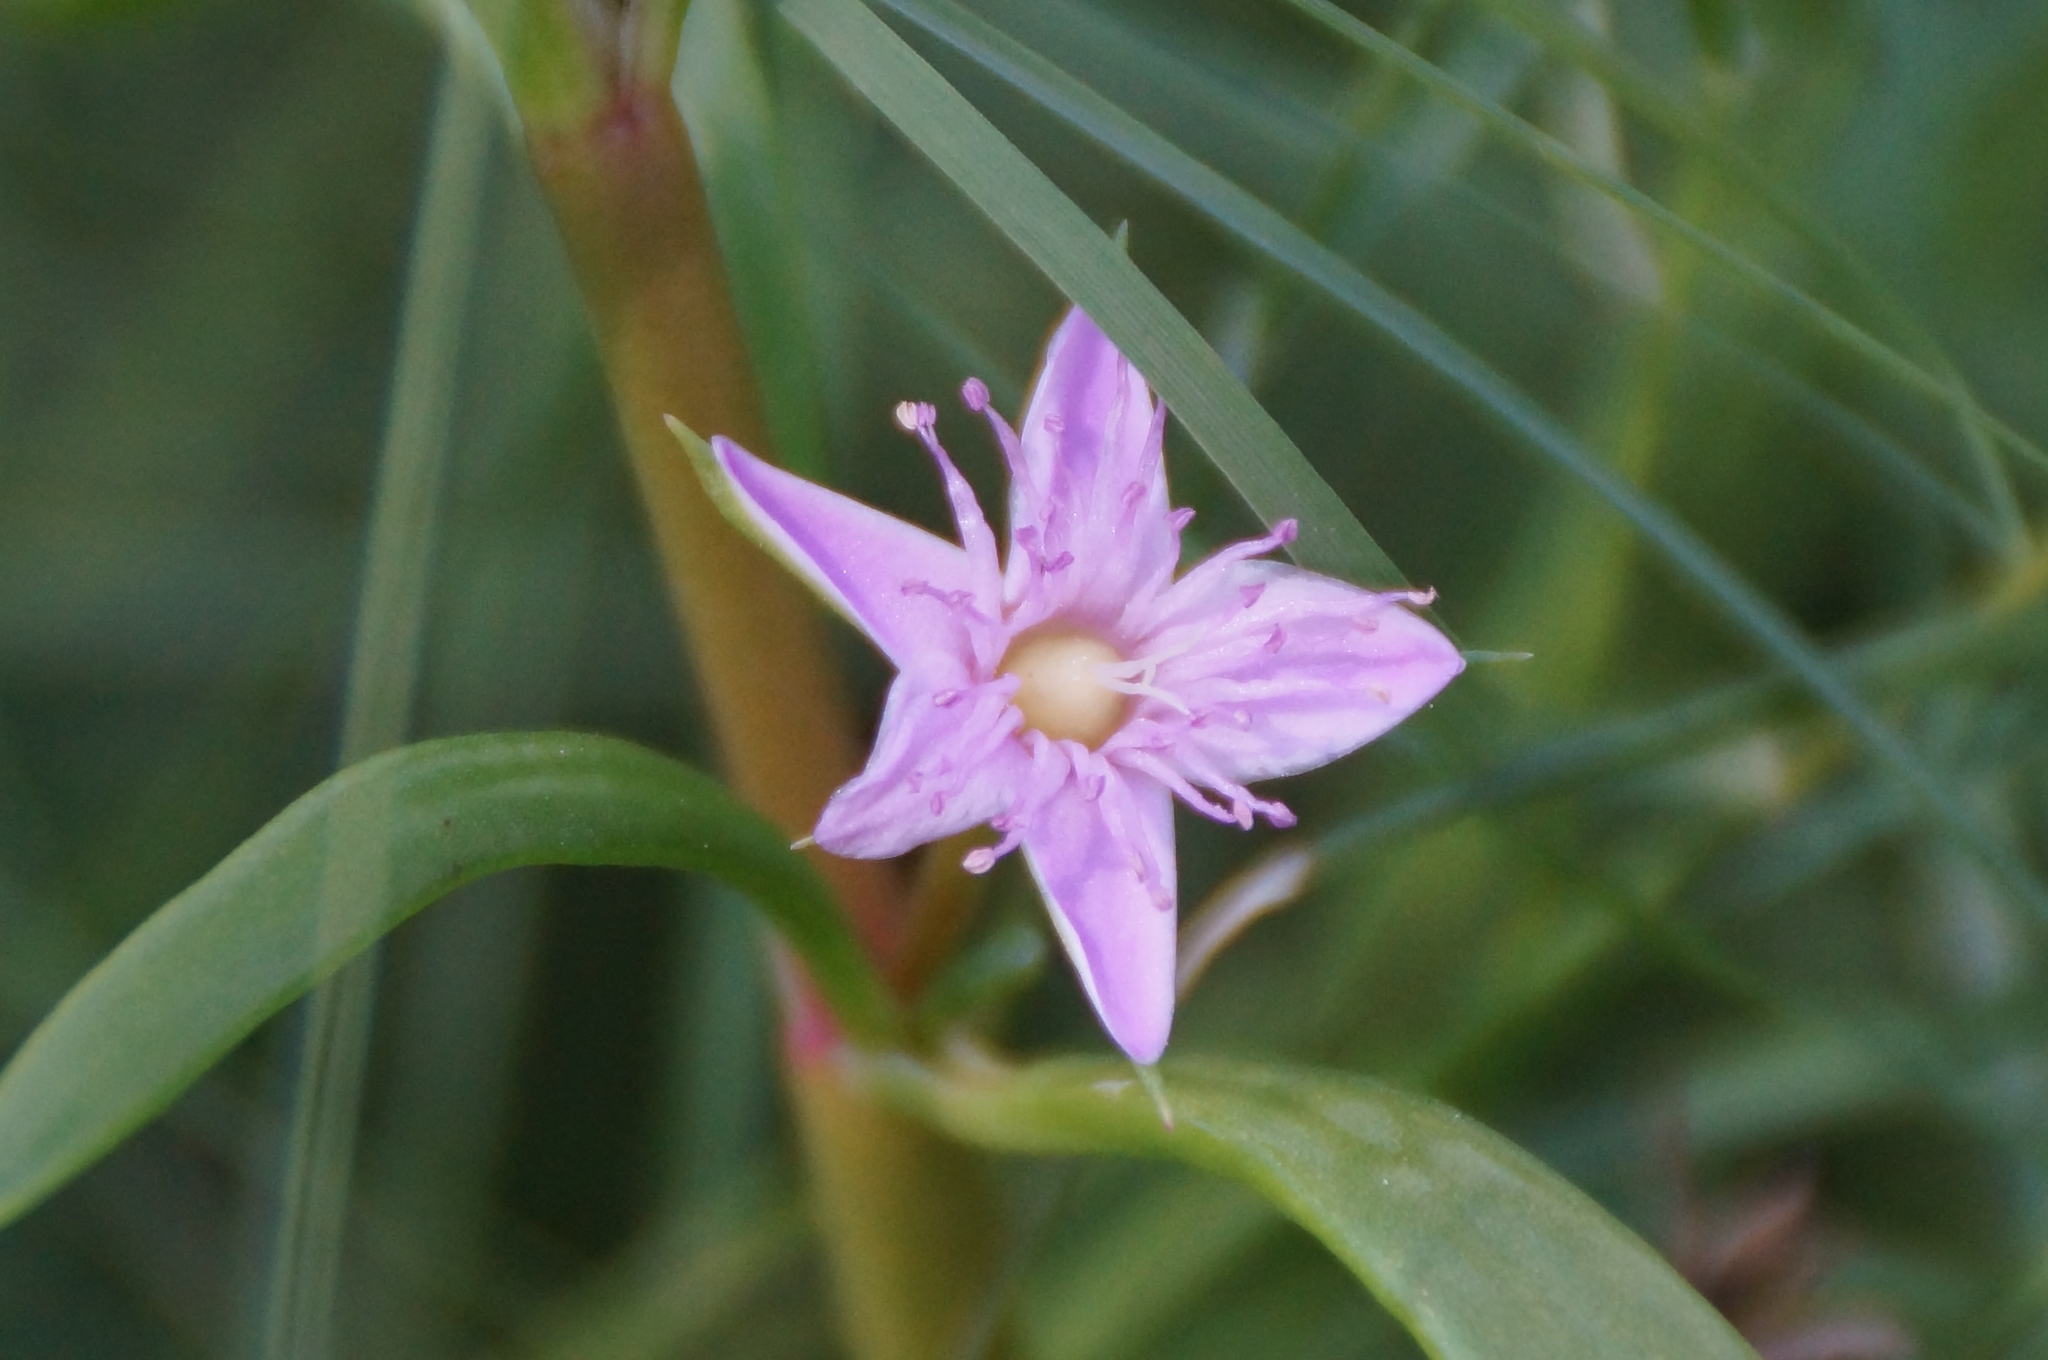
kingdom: Plantae
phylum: Tracheophyta
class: Magnoliopsida
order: Caryophyllales
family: Aizoaceae
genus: Sesuvium
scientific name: Sesuvium portulacastrum
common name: Sea-purslane
